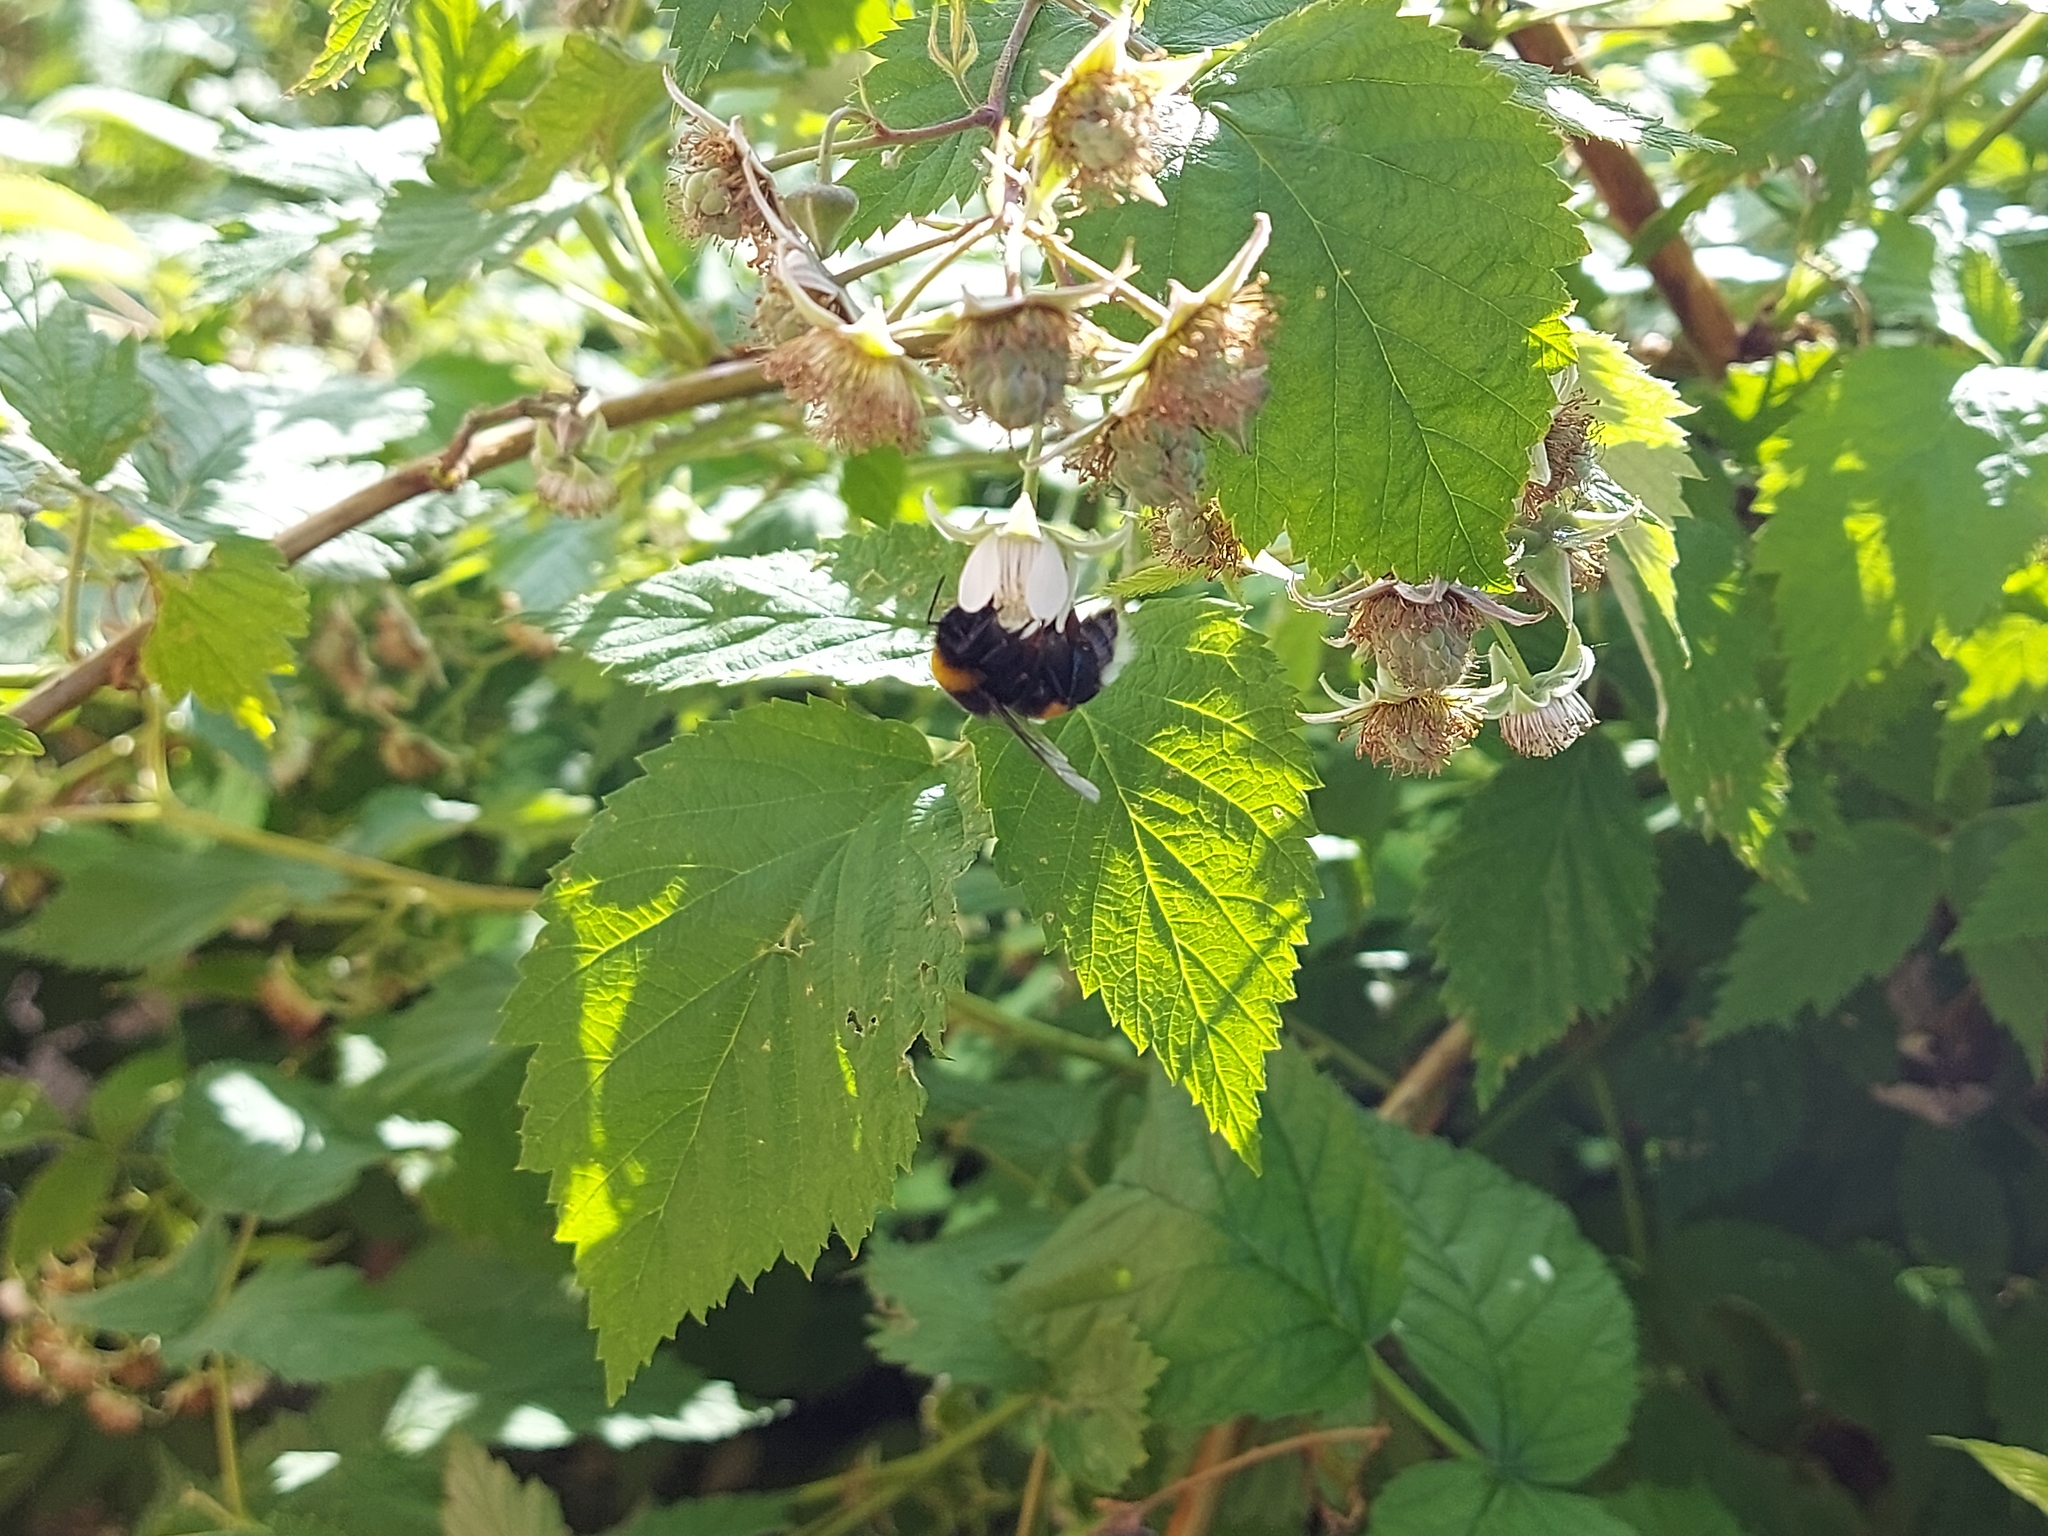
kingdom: Animalia
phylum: Arthropoda
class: Insecta
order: Hymenoptera
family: Apidae
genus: Bombus
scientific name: Bombus
